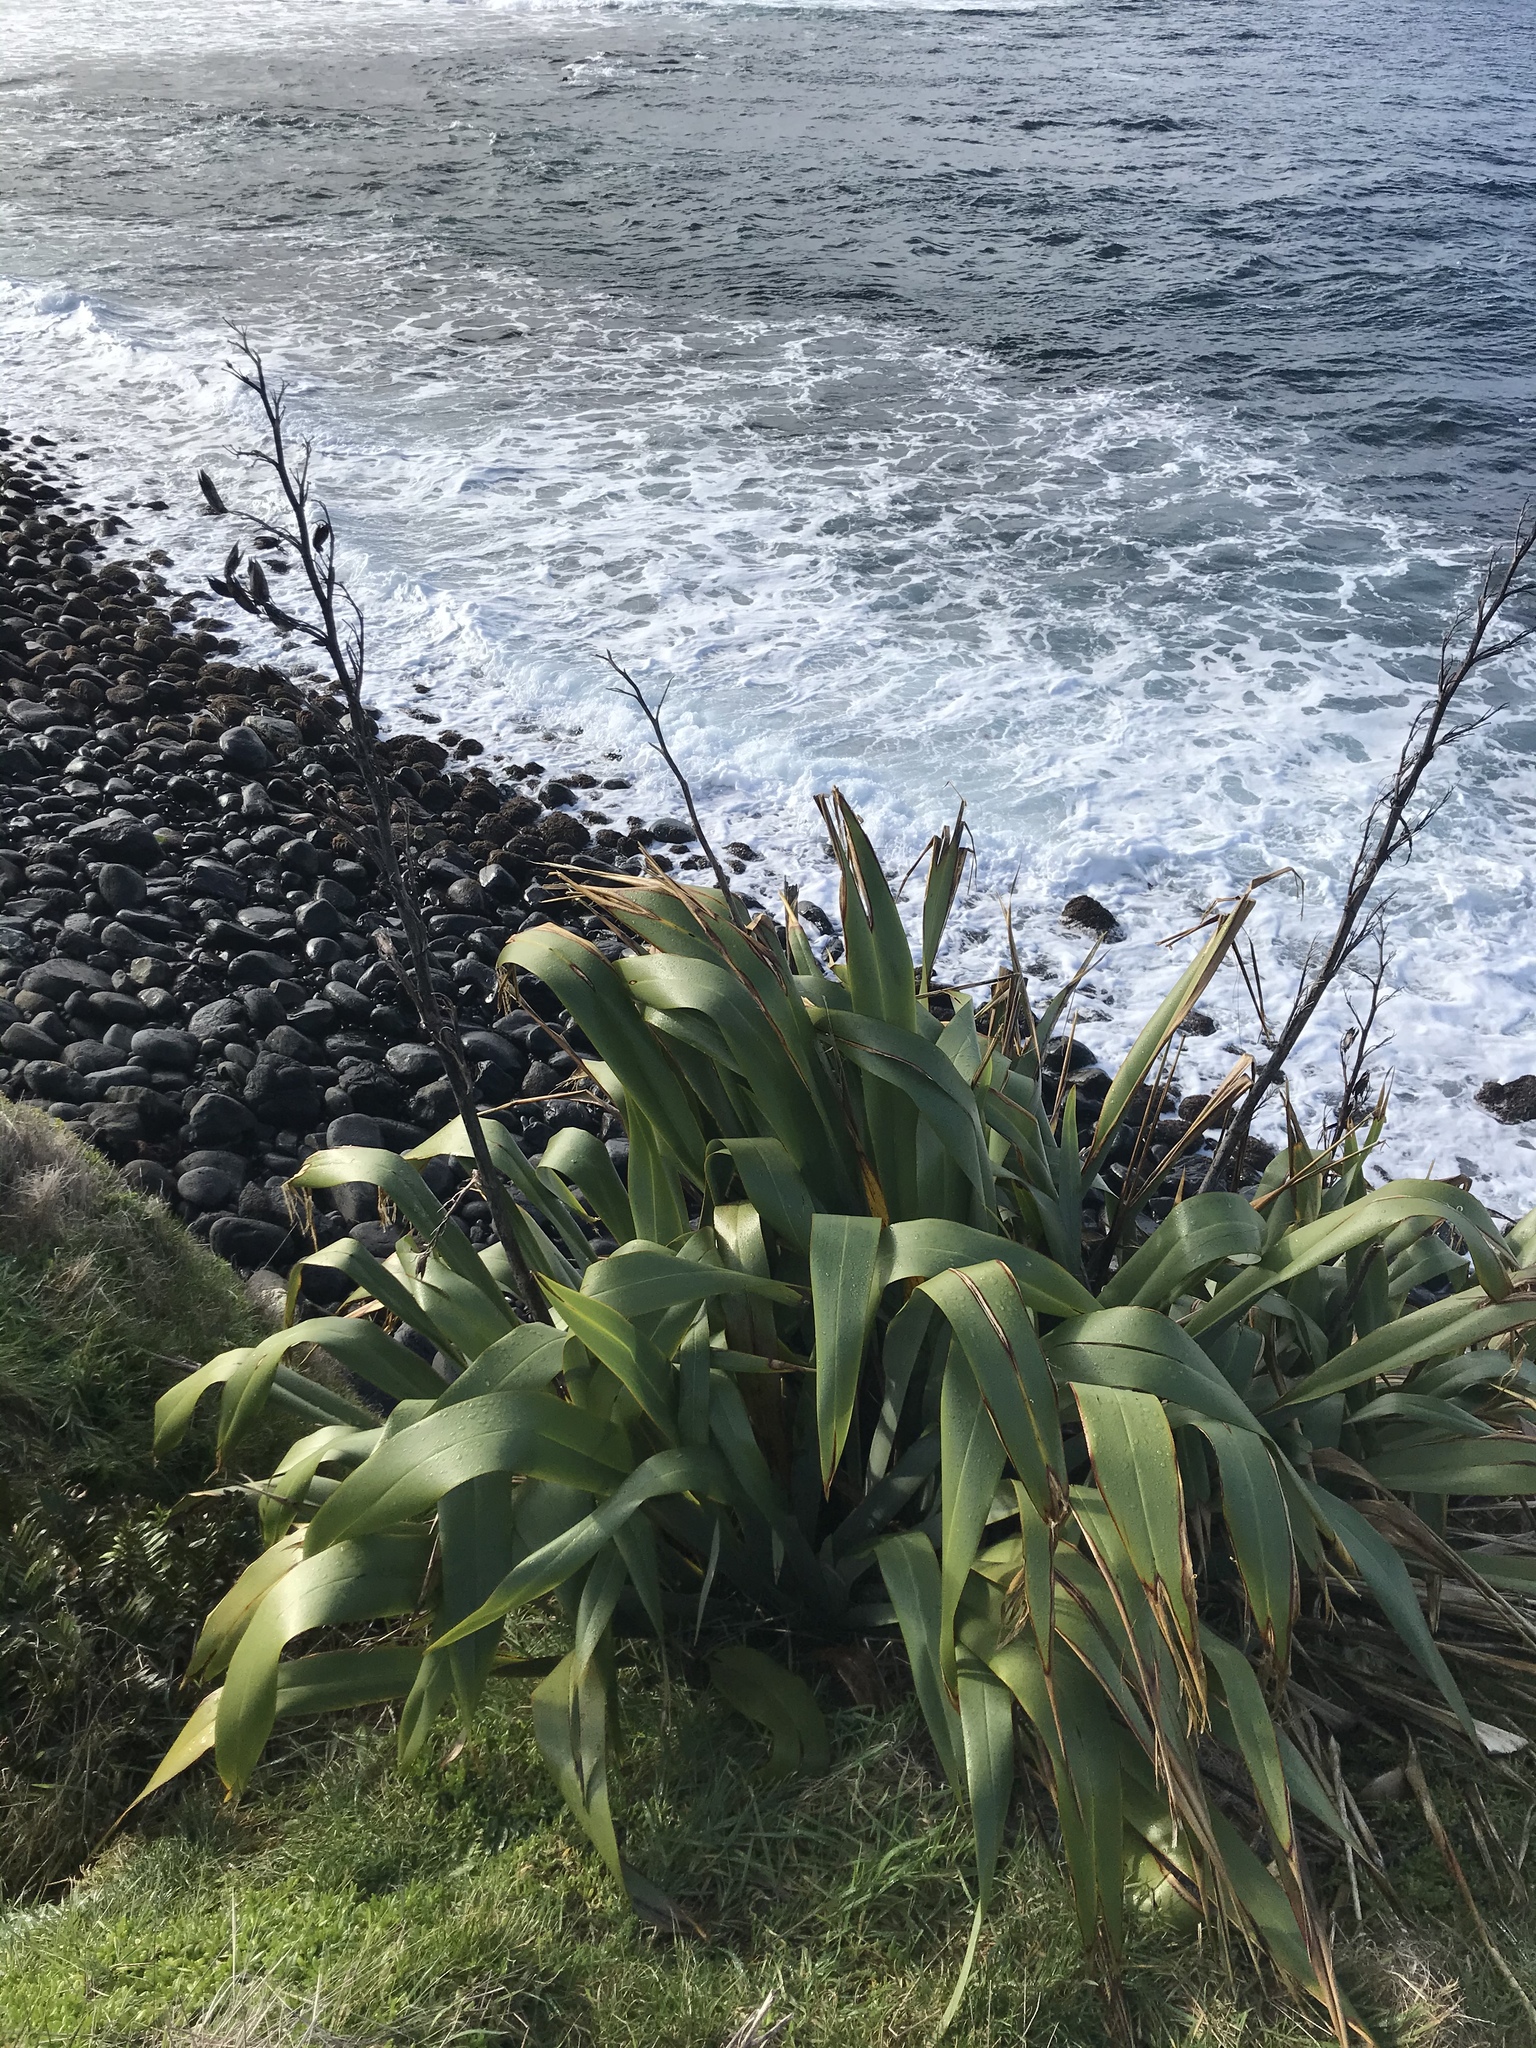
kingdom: Plantae
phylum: Tracheophyta
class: Liliopsida
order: Asparagales
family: Asphodelaceae
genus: Phormium
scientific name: Phormium tenax
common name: New zealand flax
